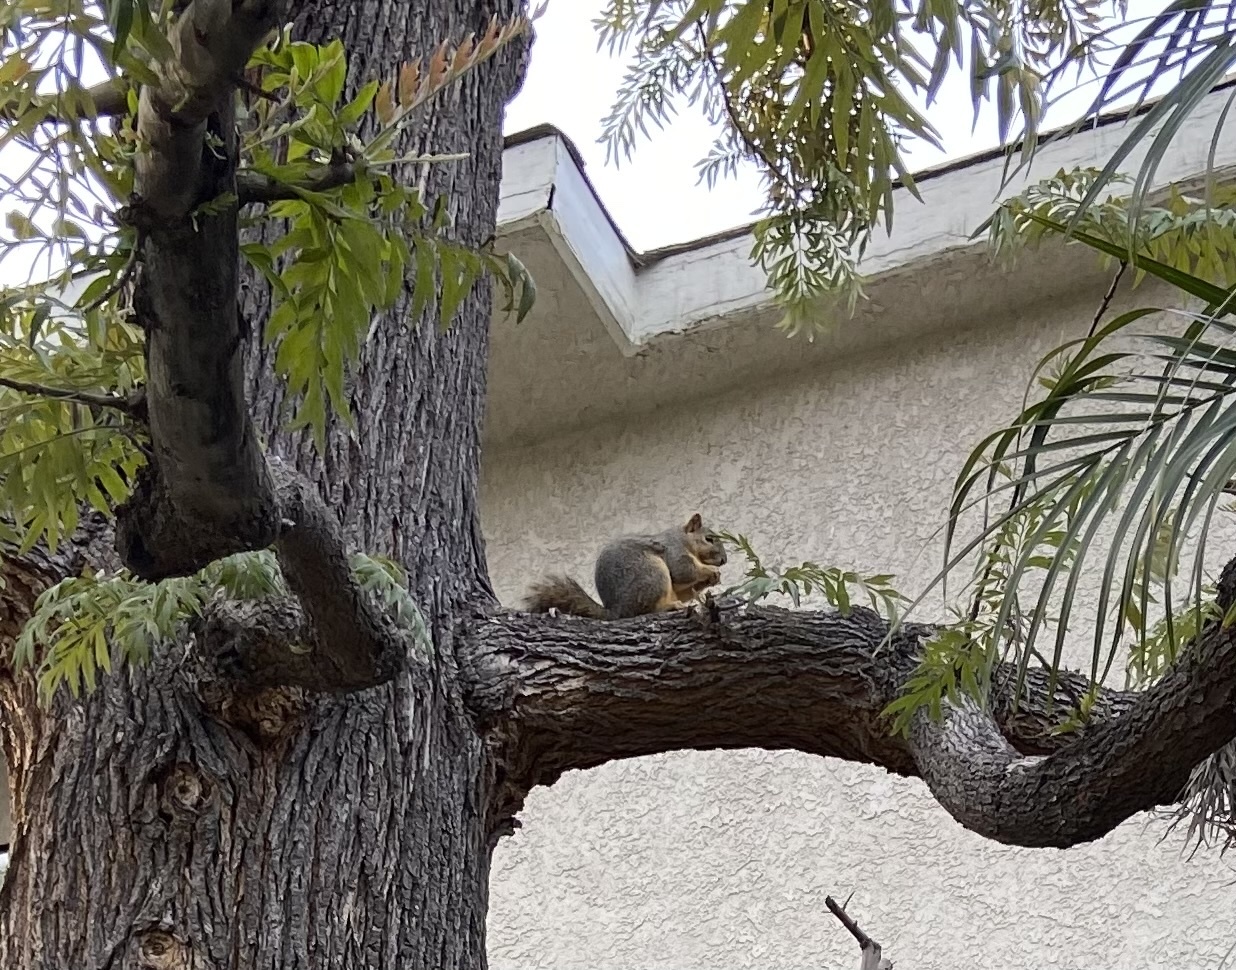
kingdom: Animalia
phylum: Chordata
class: Mammalia
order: Rodentia
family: Sciuridae
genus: Sciurus
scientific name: Sciurus niger
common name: Fox squirrel
